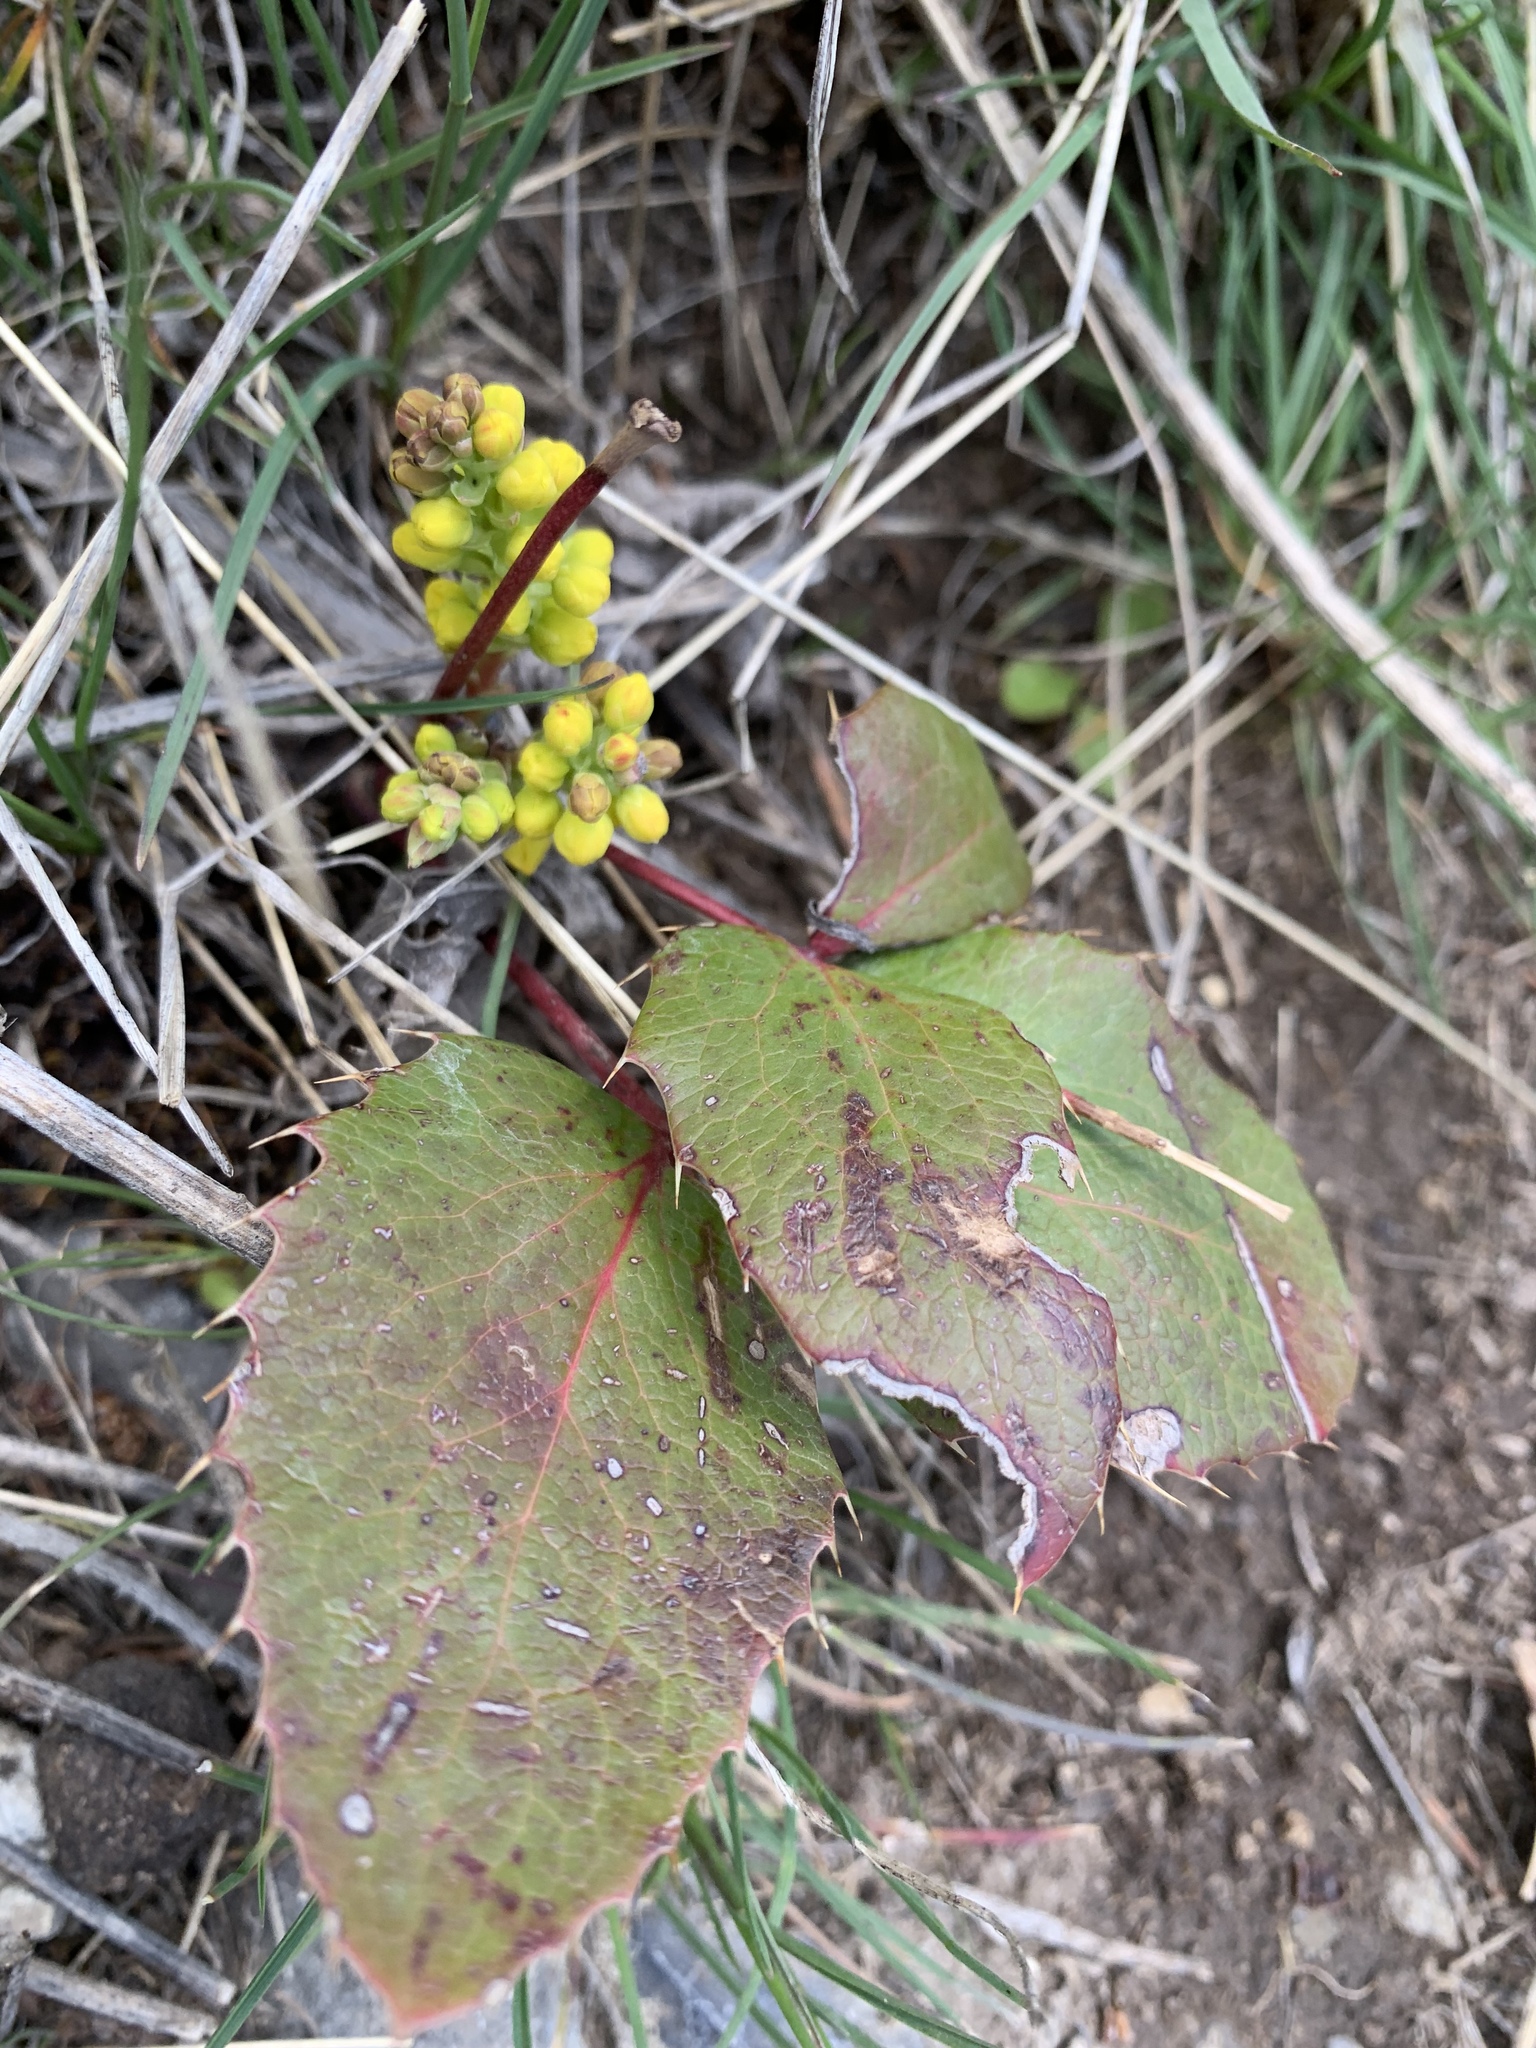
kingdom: Plantae
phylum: Tracheophyta
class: Magnoliopsida
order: Ranunculales
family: Berberidaceae
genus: Mahonia
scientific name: Mahonia repens
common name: Creeping oregon-grape
